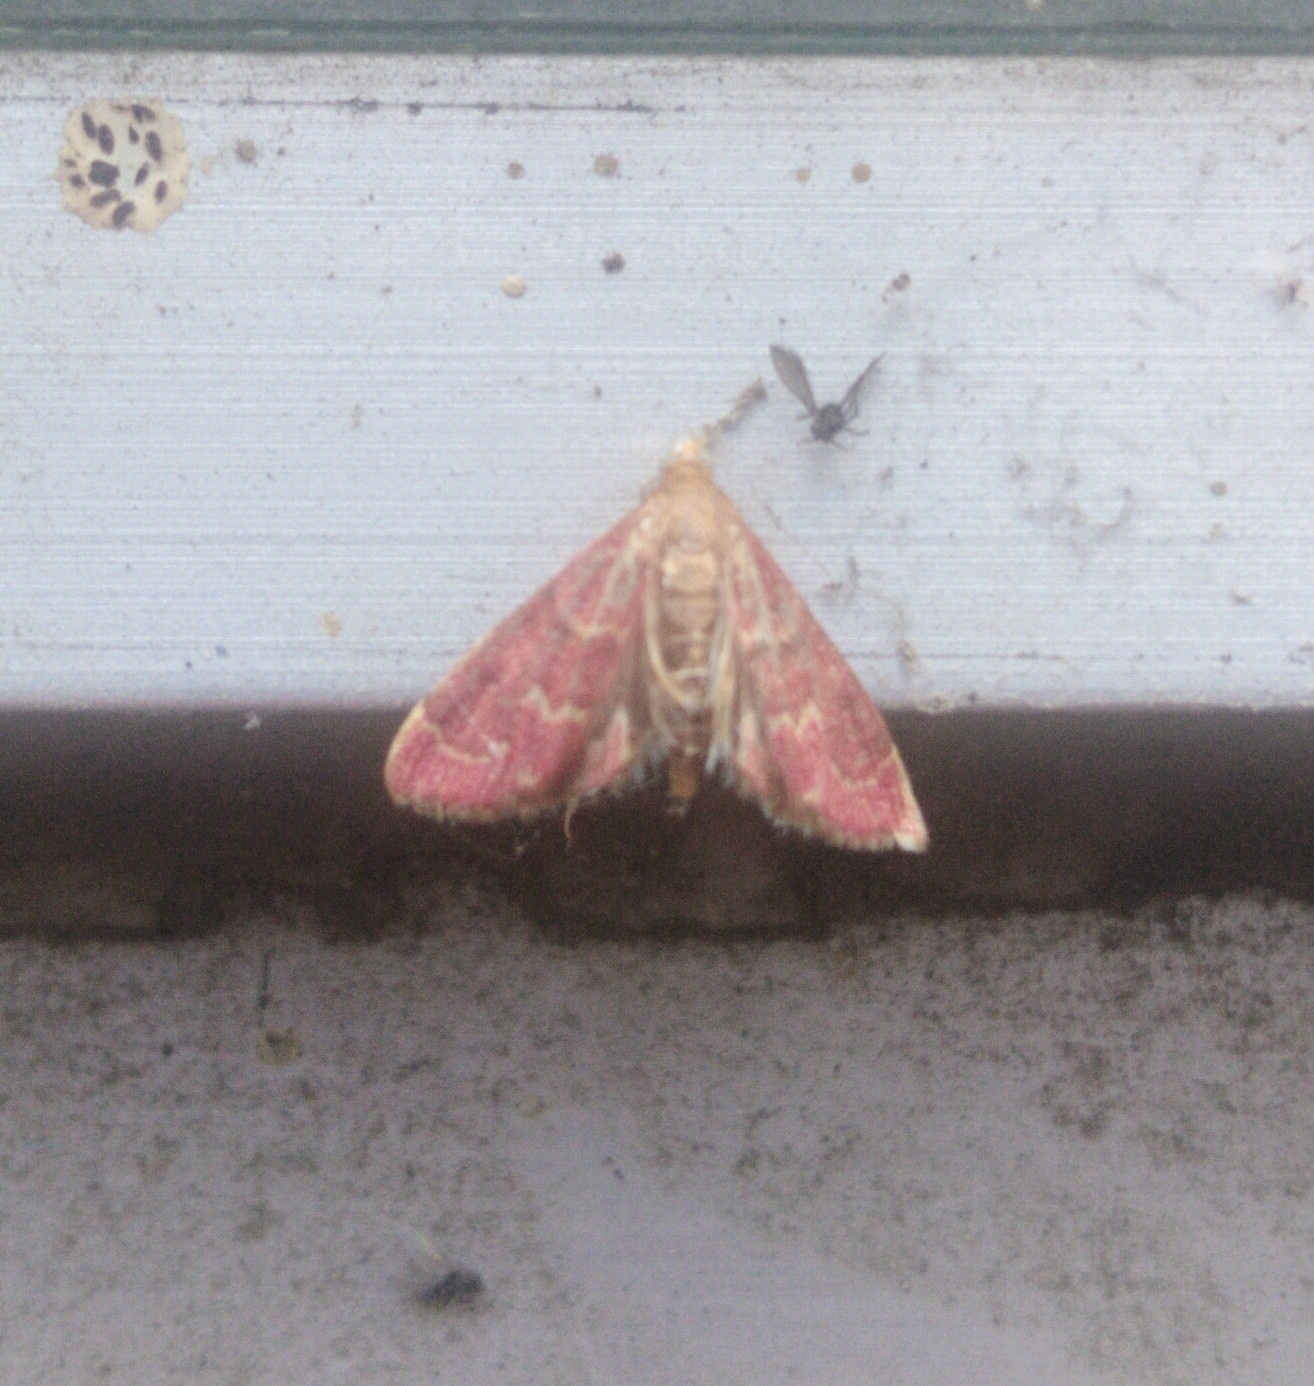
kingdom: Animalia
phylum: Arthropoda
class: Insecta
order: Lepidoptera
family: Crambidae
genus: Pyrausta
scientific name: Pyrausta signatalis
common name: Raspberry pyrausta moth
